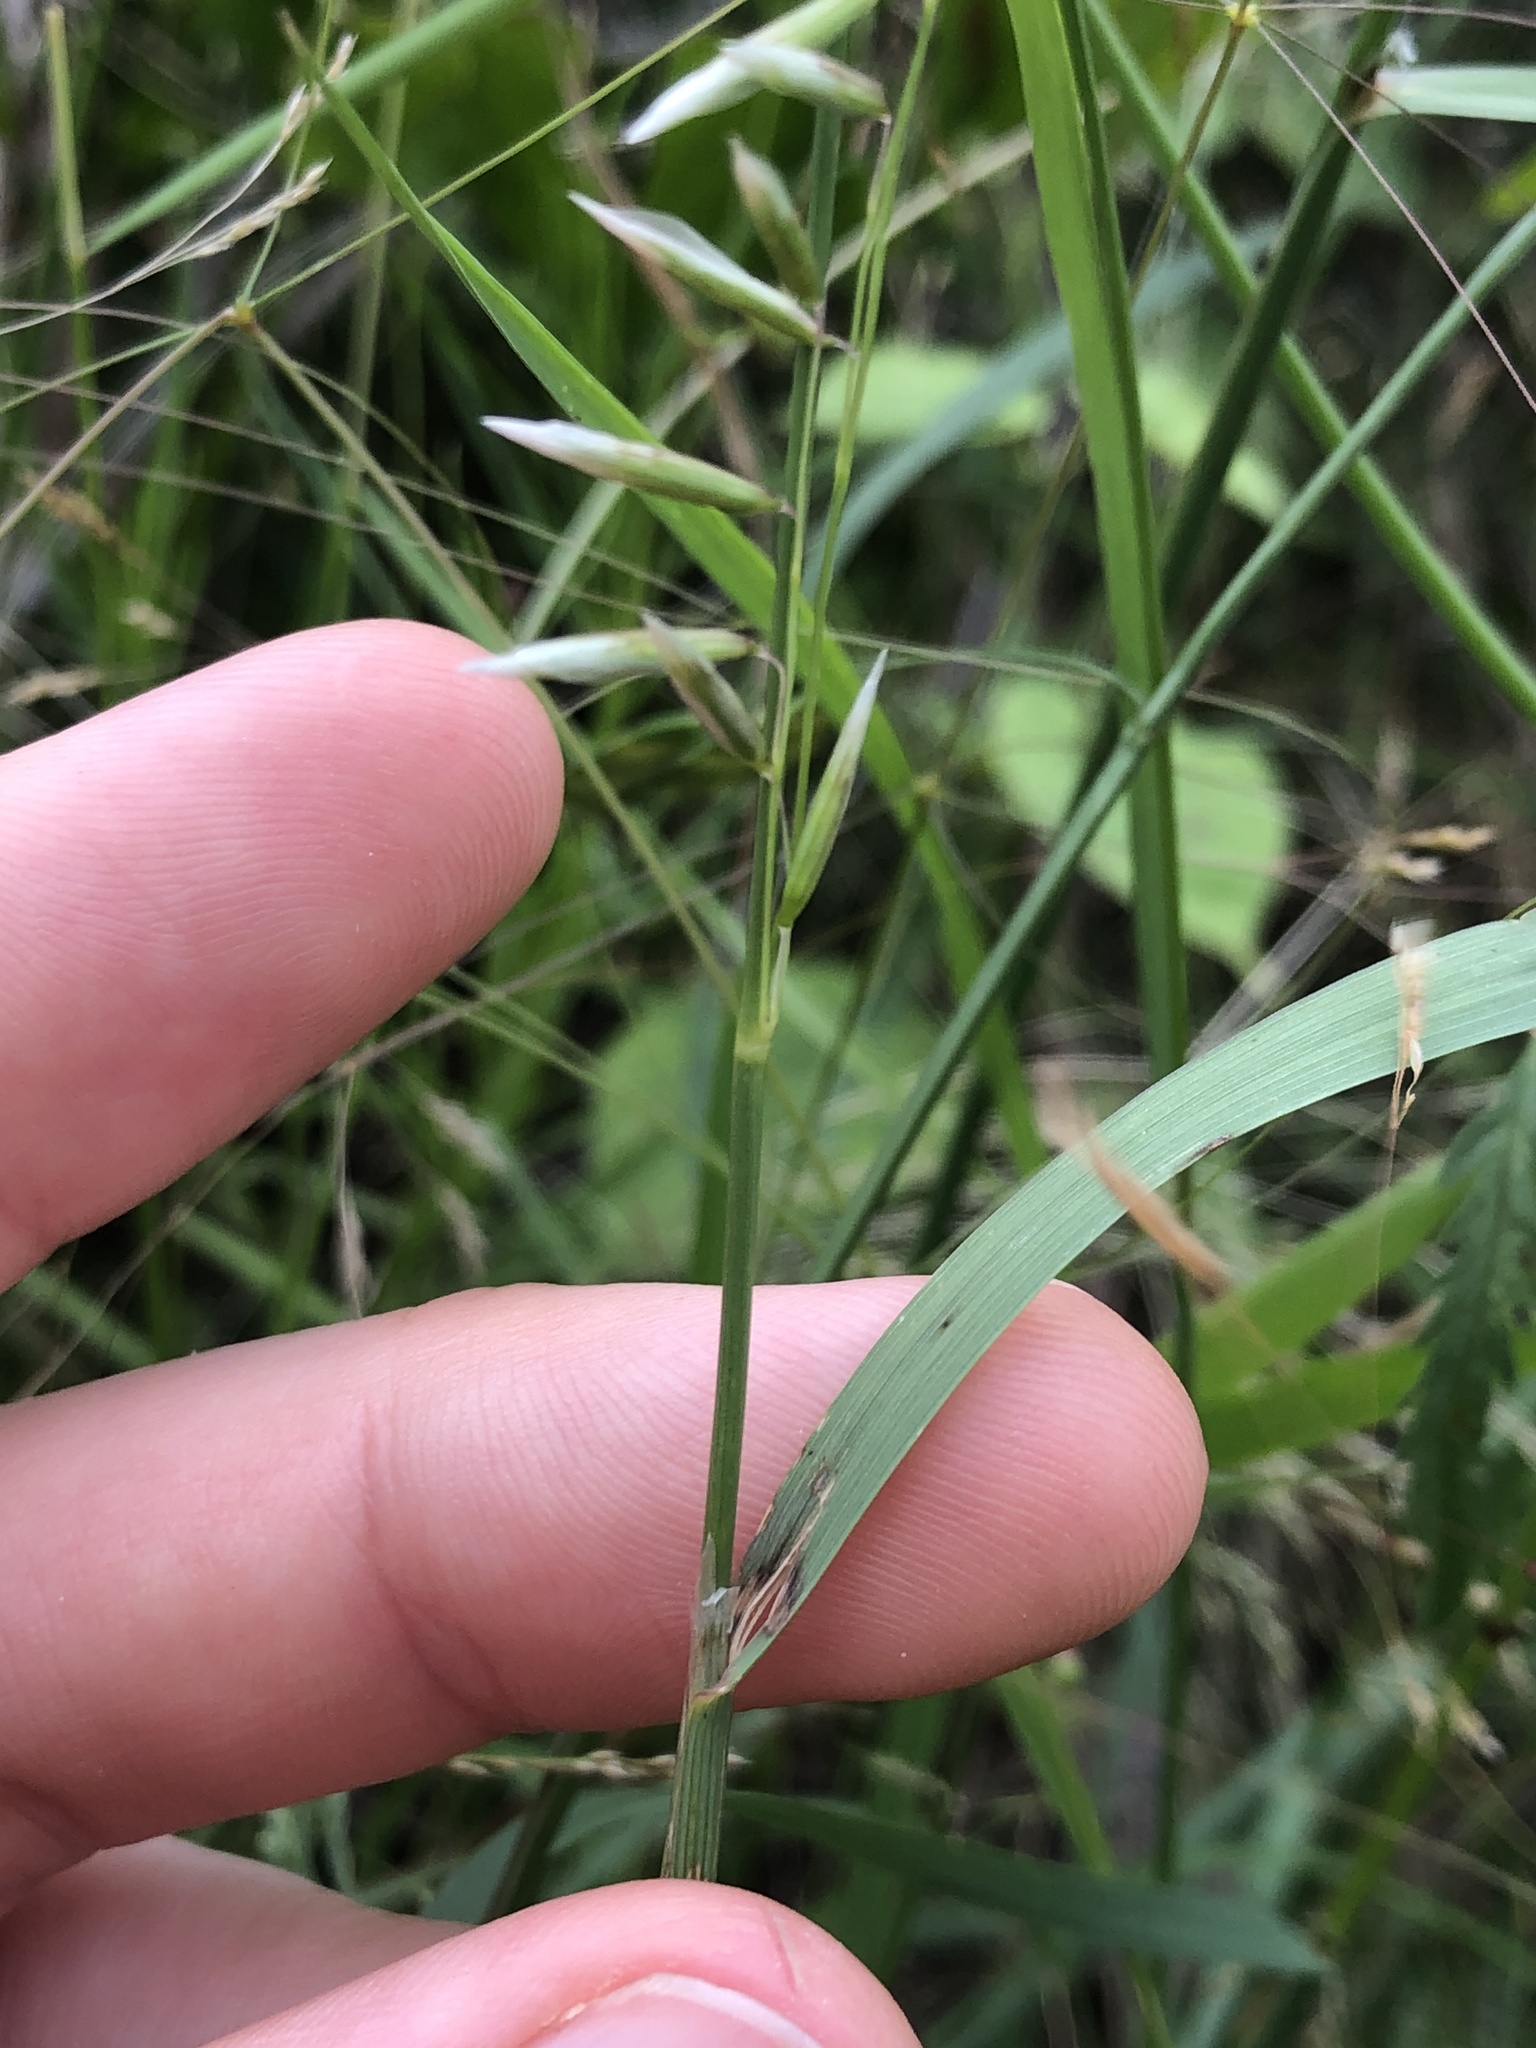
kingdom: Plantae
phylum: Tracheophyta
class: Liliopsida
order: Poales
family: Poaceae
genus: Melica
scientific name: Melica nitens
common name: Three-flower melic
